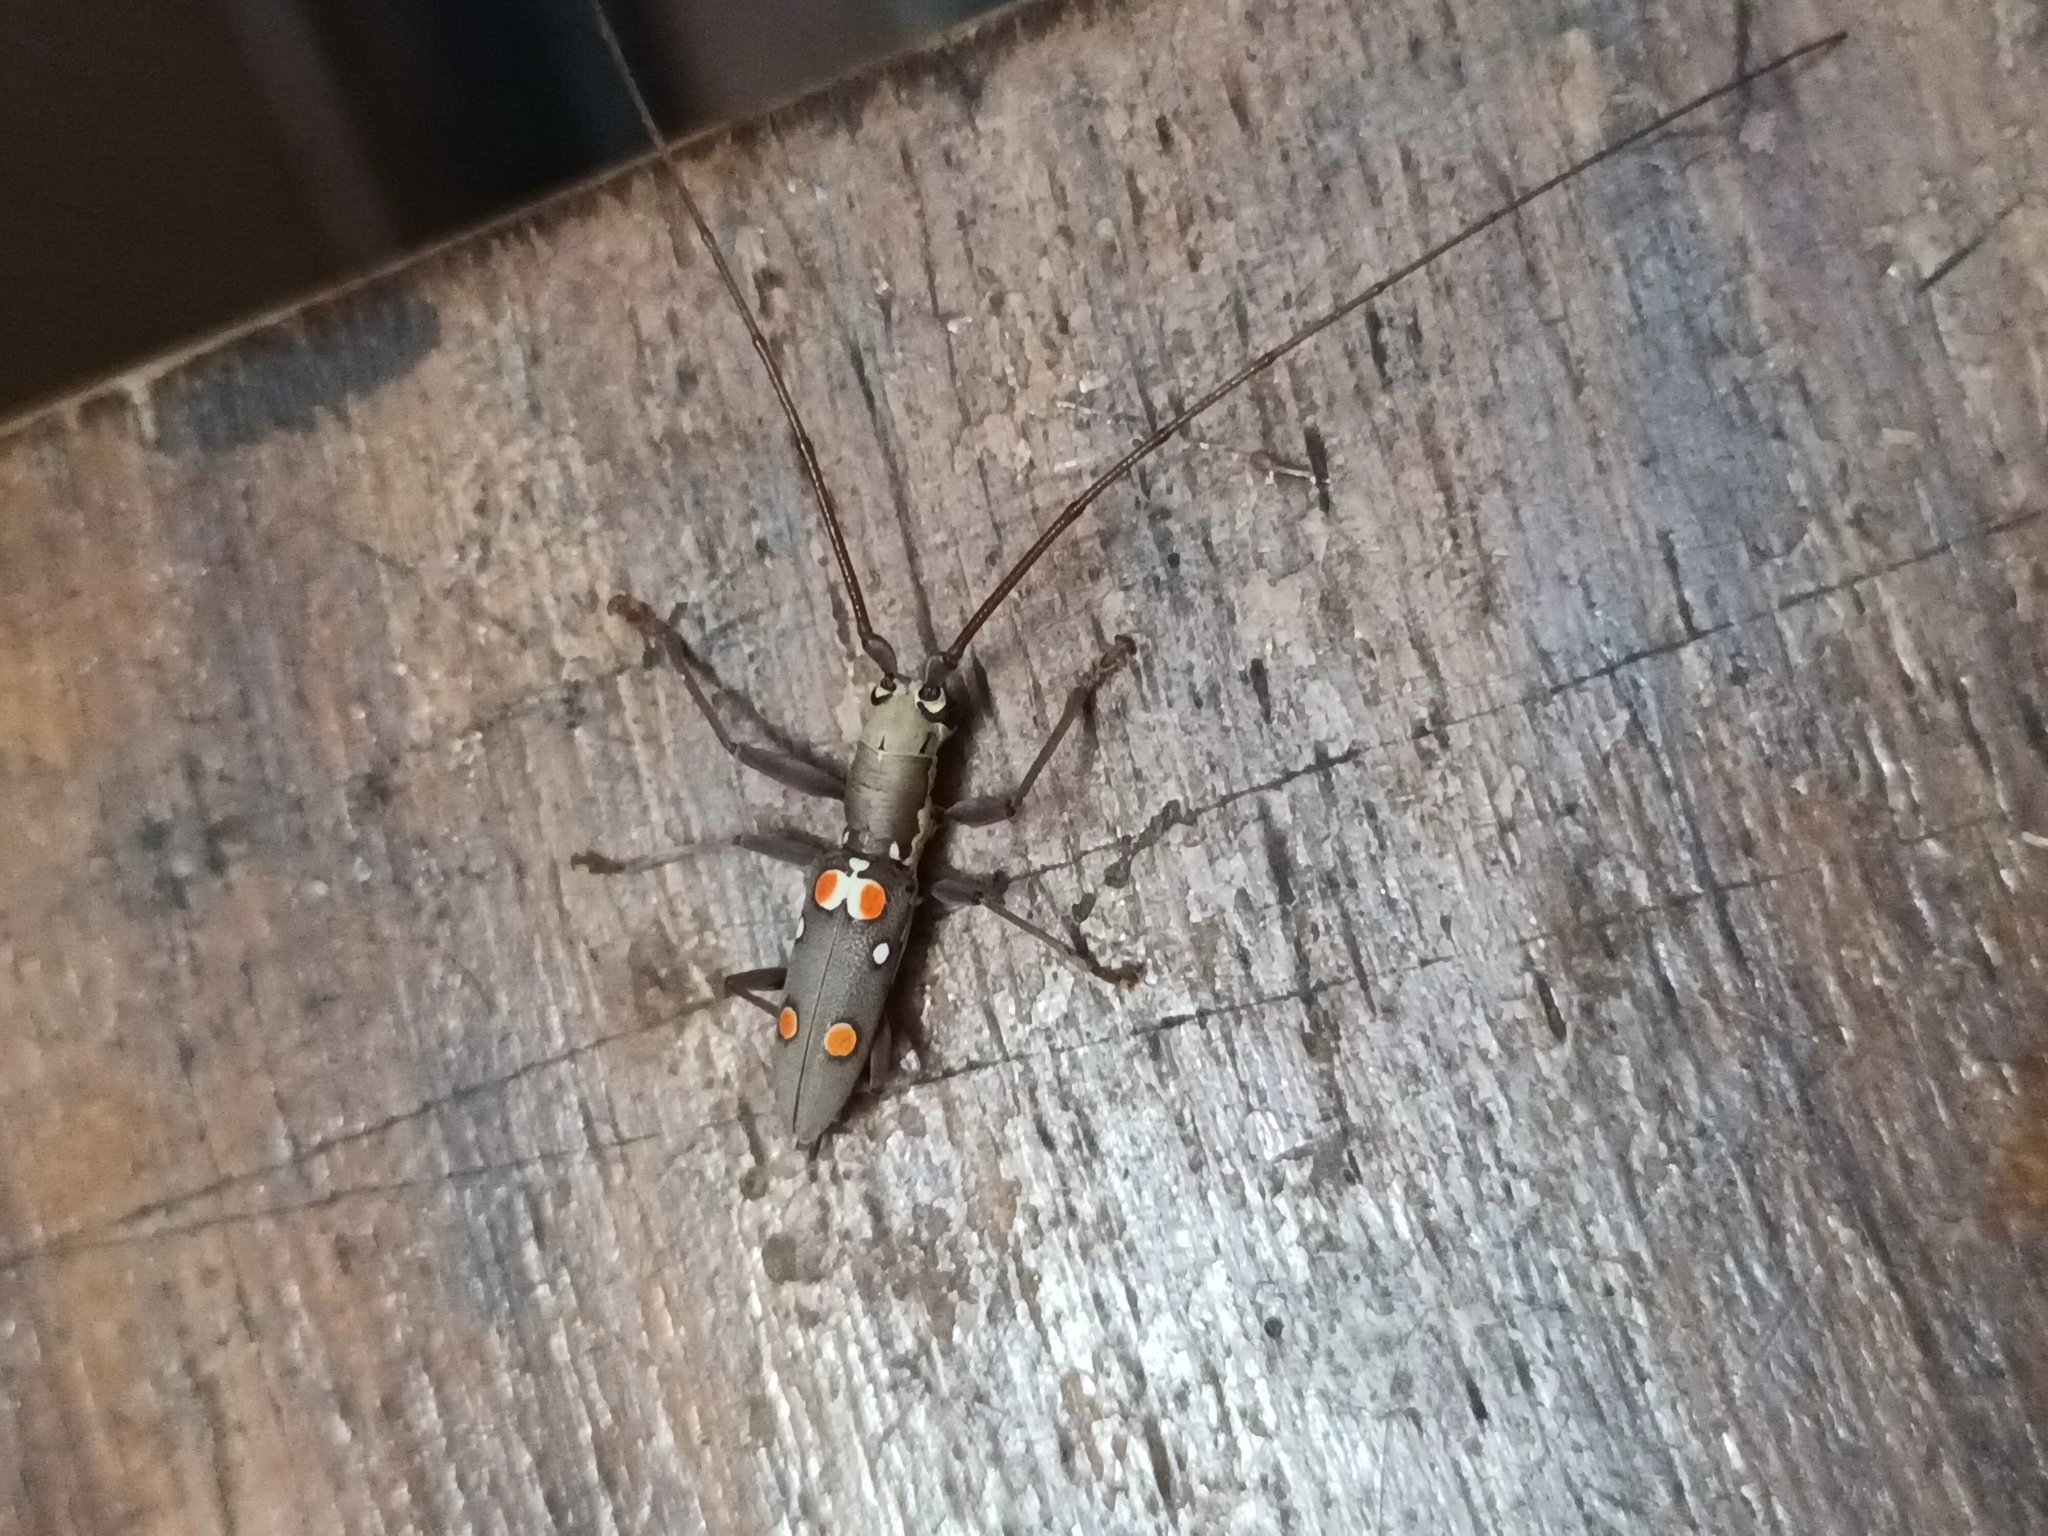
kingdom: Animalia
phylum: Arthropoda
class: Insecta
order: Coleoptera
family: Cerambycidae
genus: Olenecamptus
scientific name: Olenecamptus bilobus
